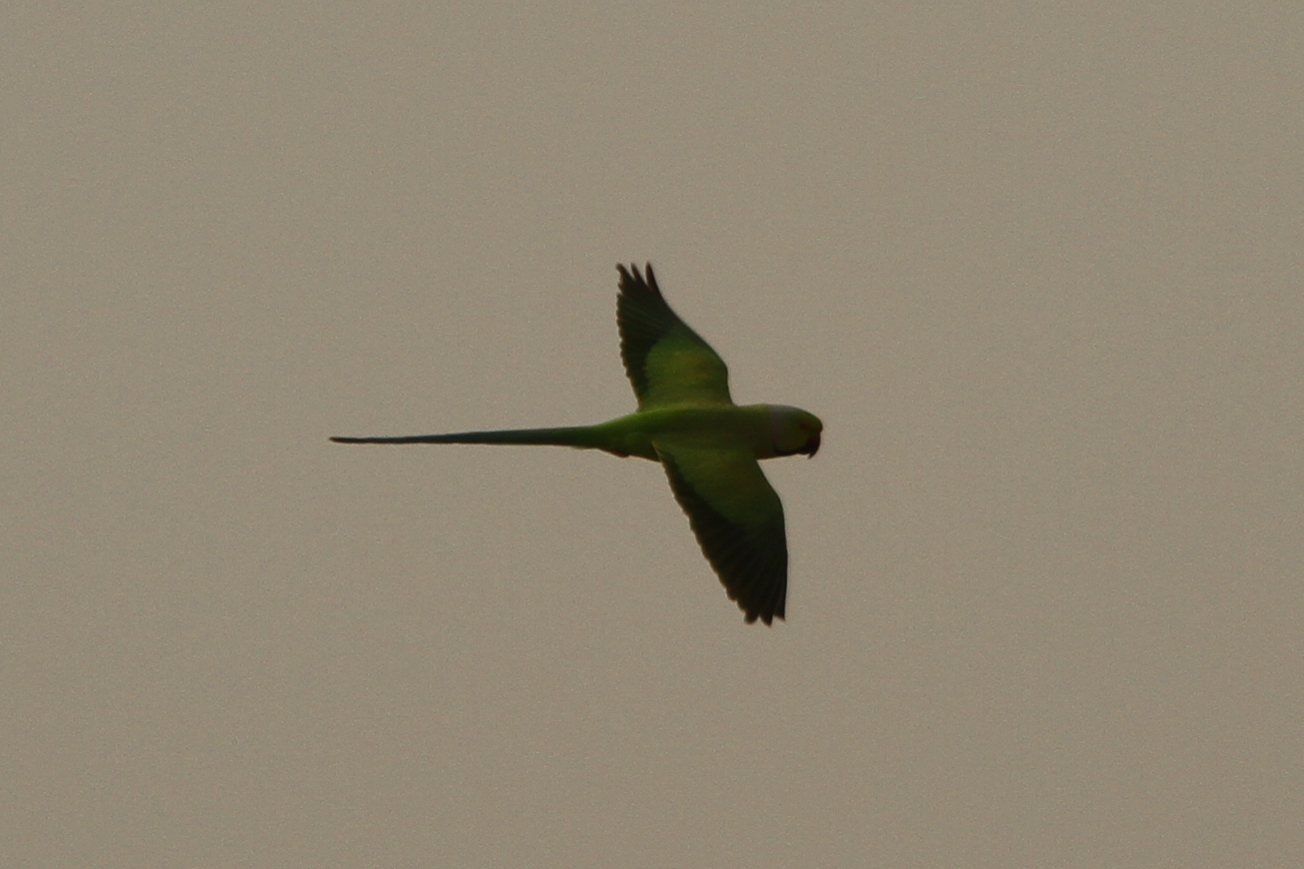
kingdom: Animalia
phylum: Chordata
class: Aves
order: Psittaciformes
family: Psittacidae
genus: Psittacula
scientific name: Psittacula krameri
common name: Rose-ringed parakeet
